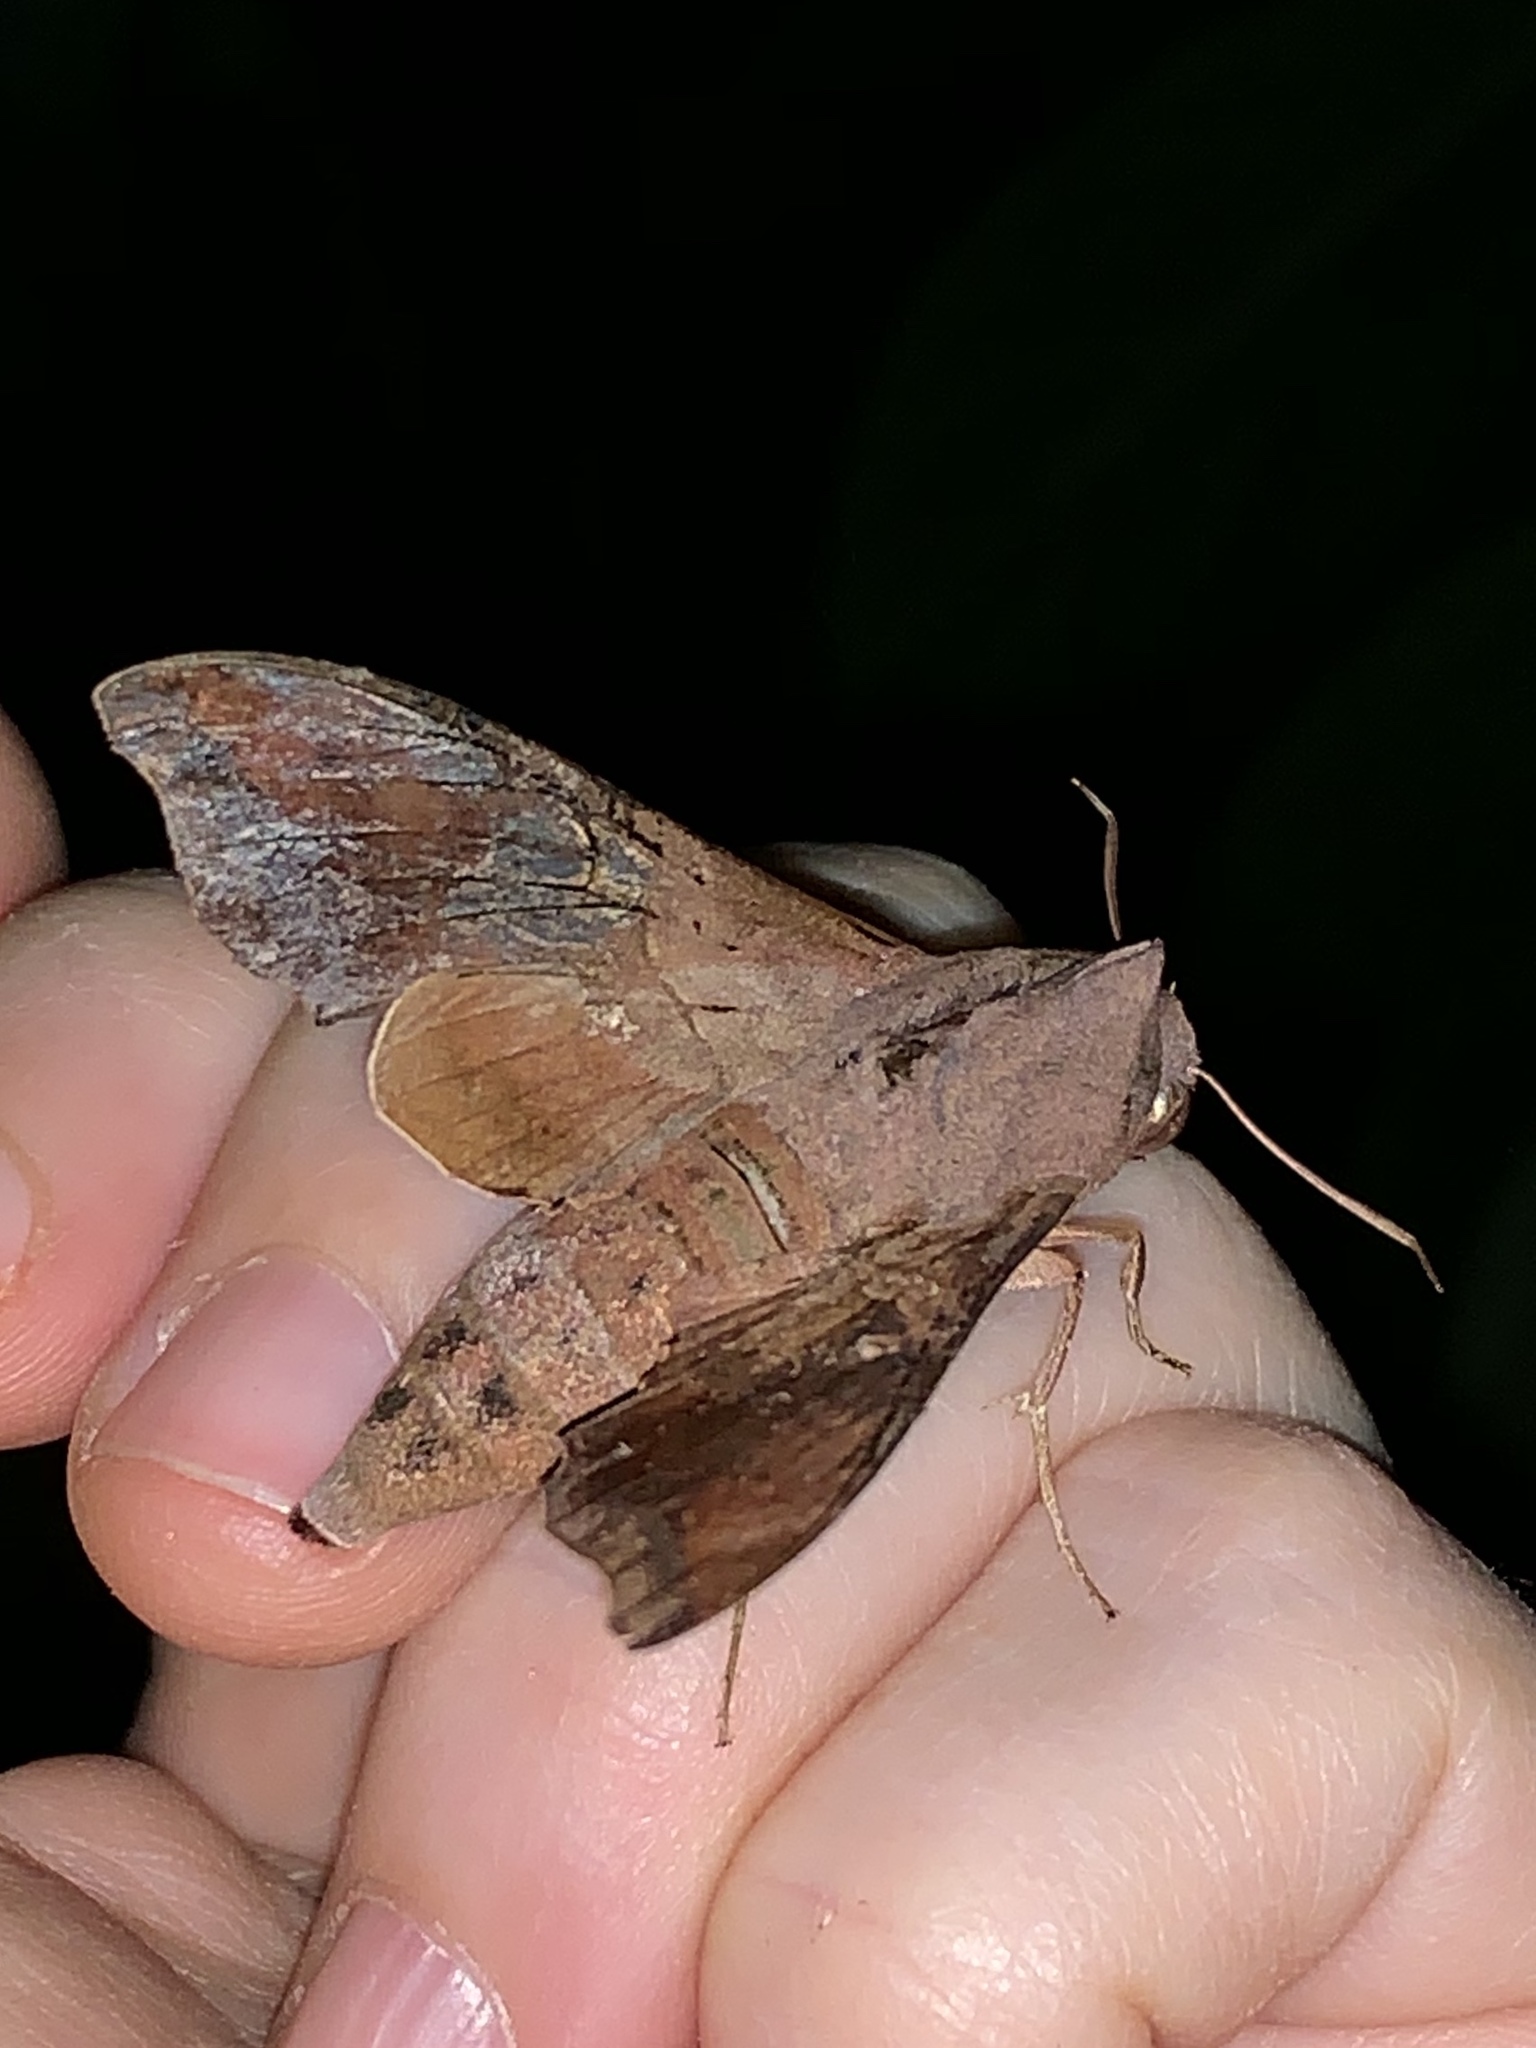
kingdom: Animalia
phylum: Arthropoda
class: Insecta
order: Lepidoptera
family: Sphingidae
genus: Enyo
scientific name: Enyo lugubris
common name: Mournful sphinx
